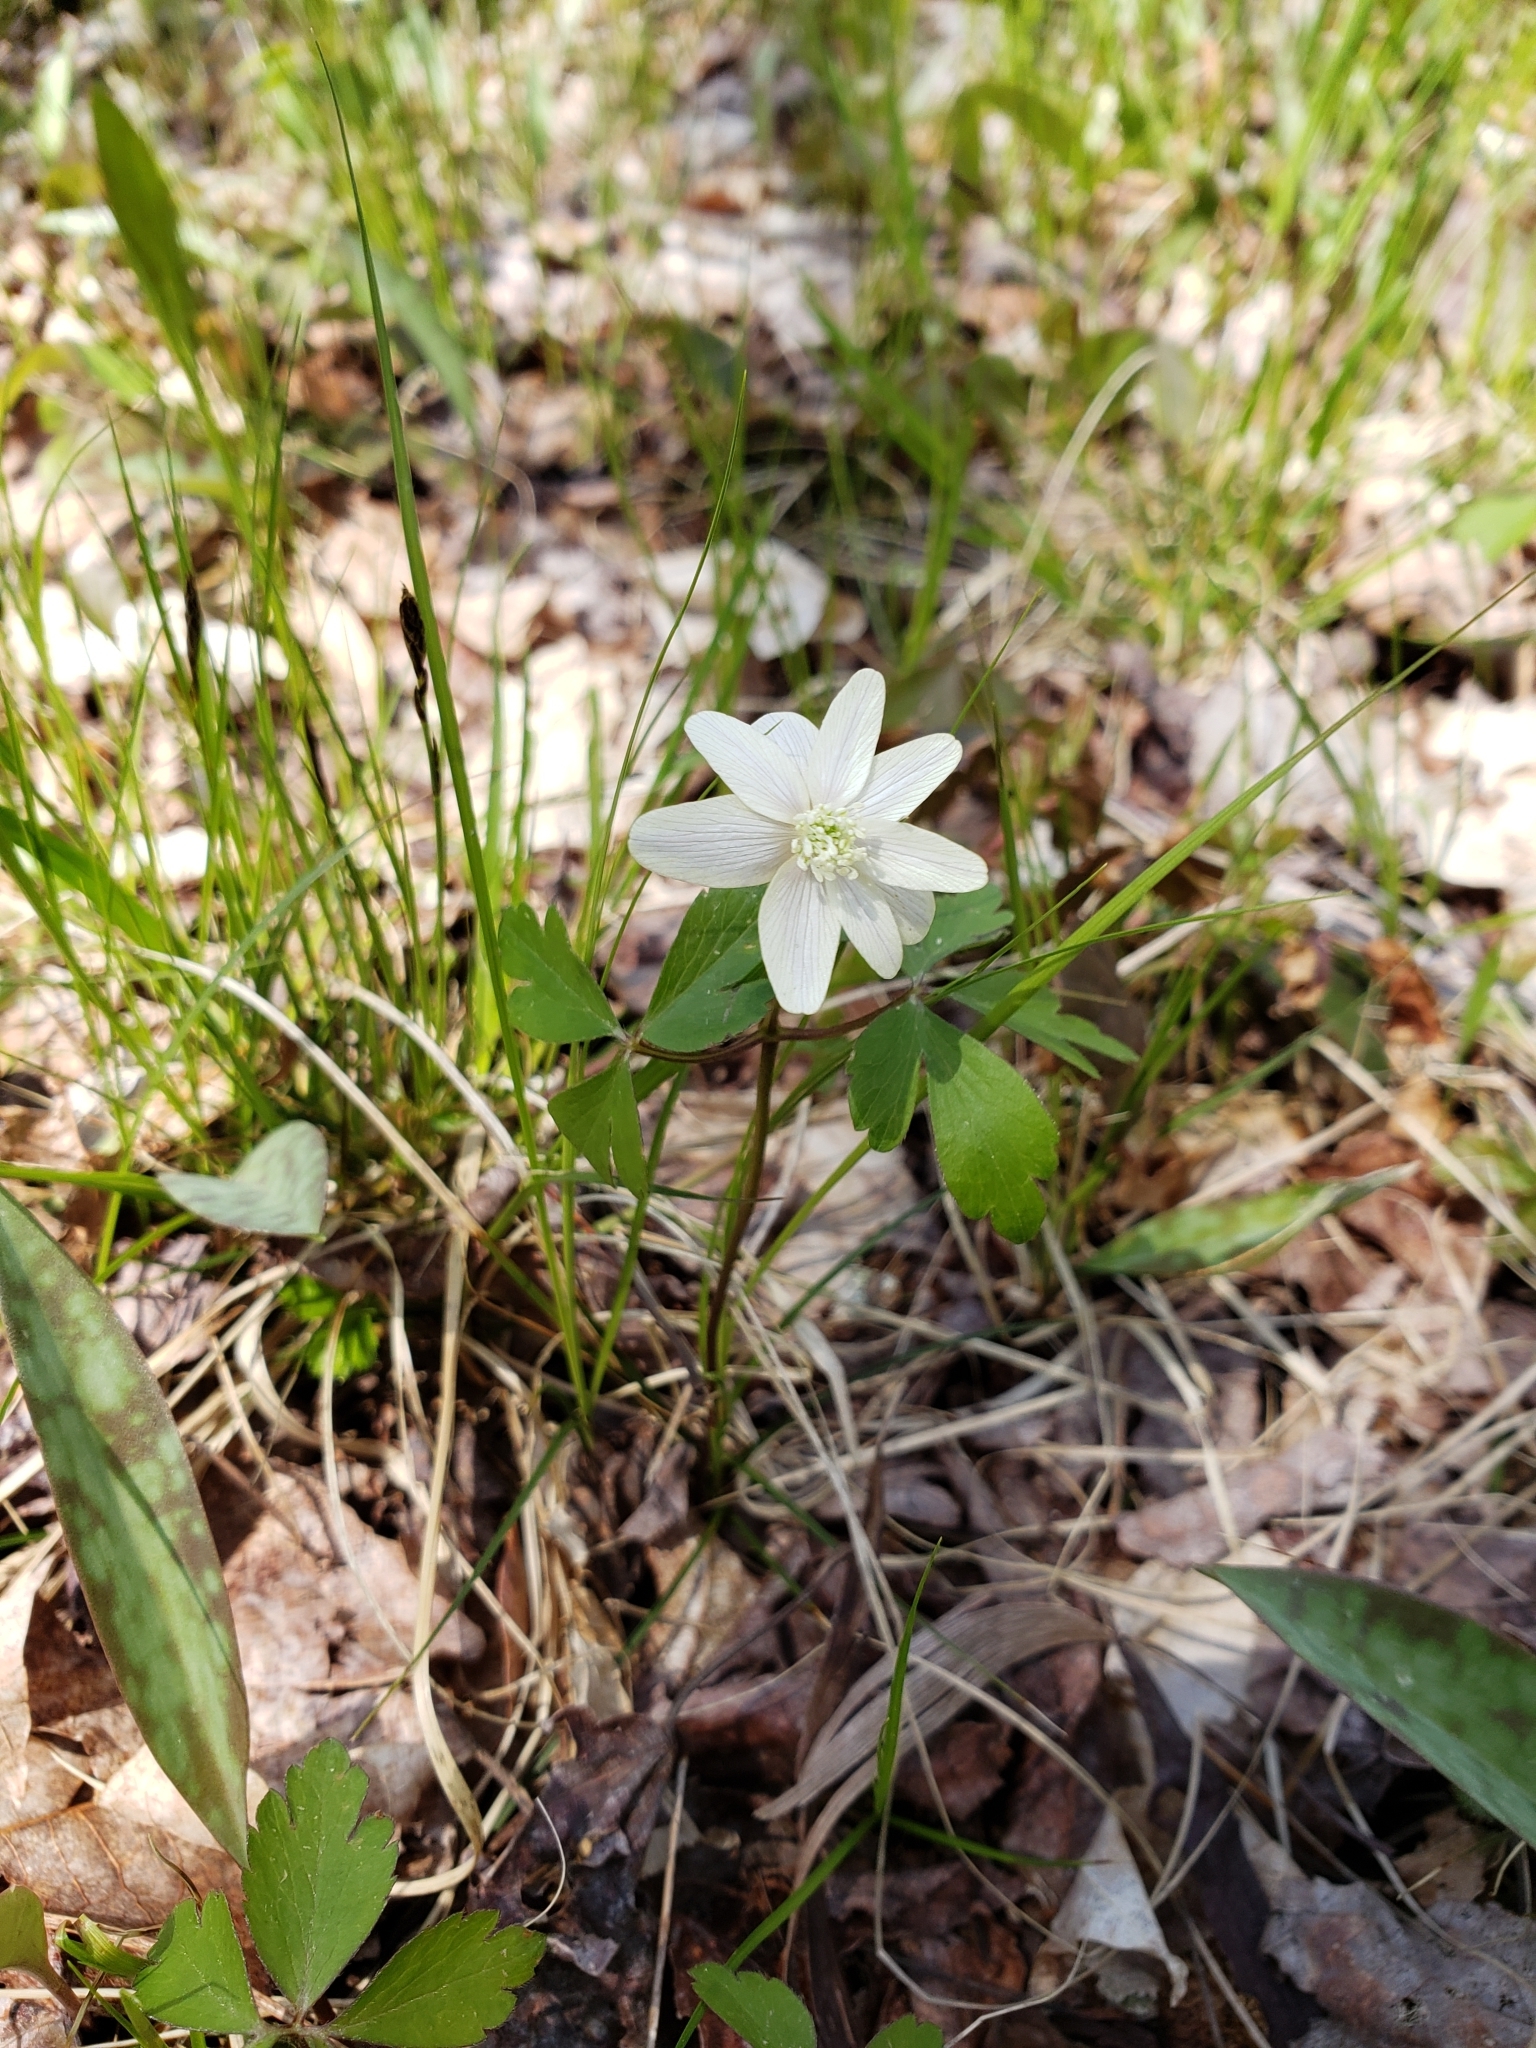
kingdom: Plantae
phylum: Tracheophyta
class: Magnoliopsida
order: Ranunculales
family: Ranunculaceae
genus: Anemone
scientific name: Anemone quinquefolia
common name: Wood anemone
